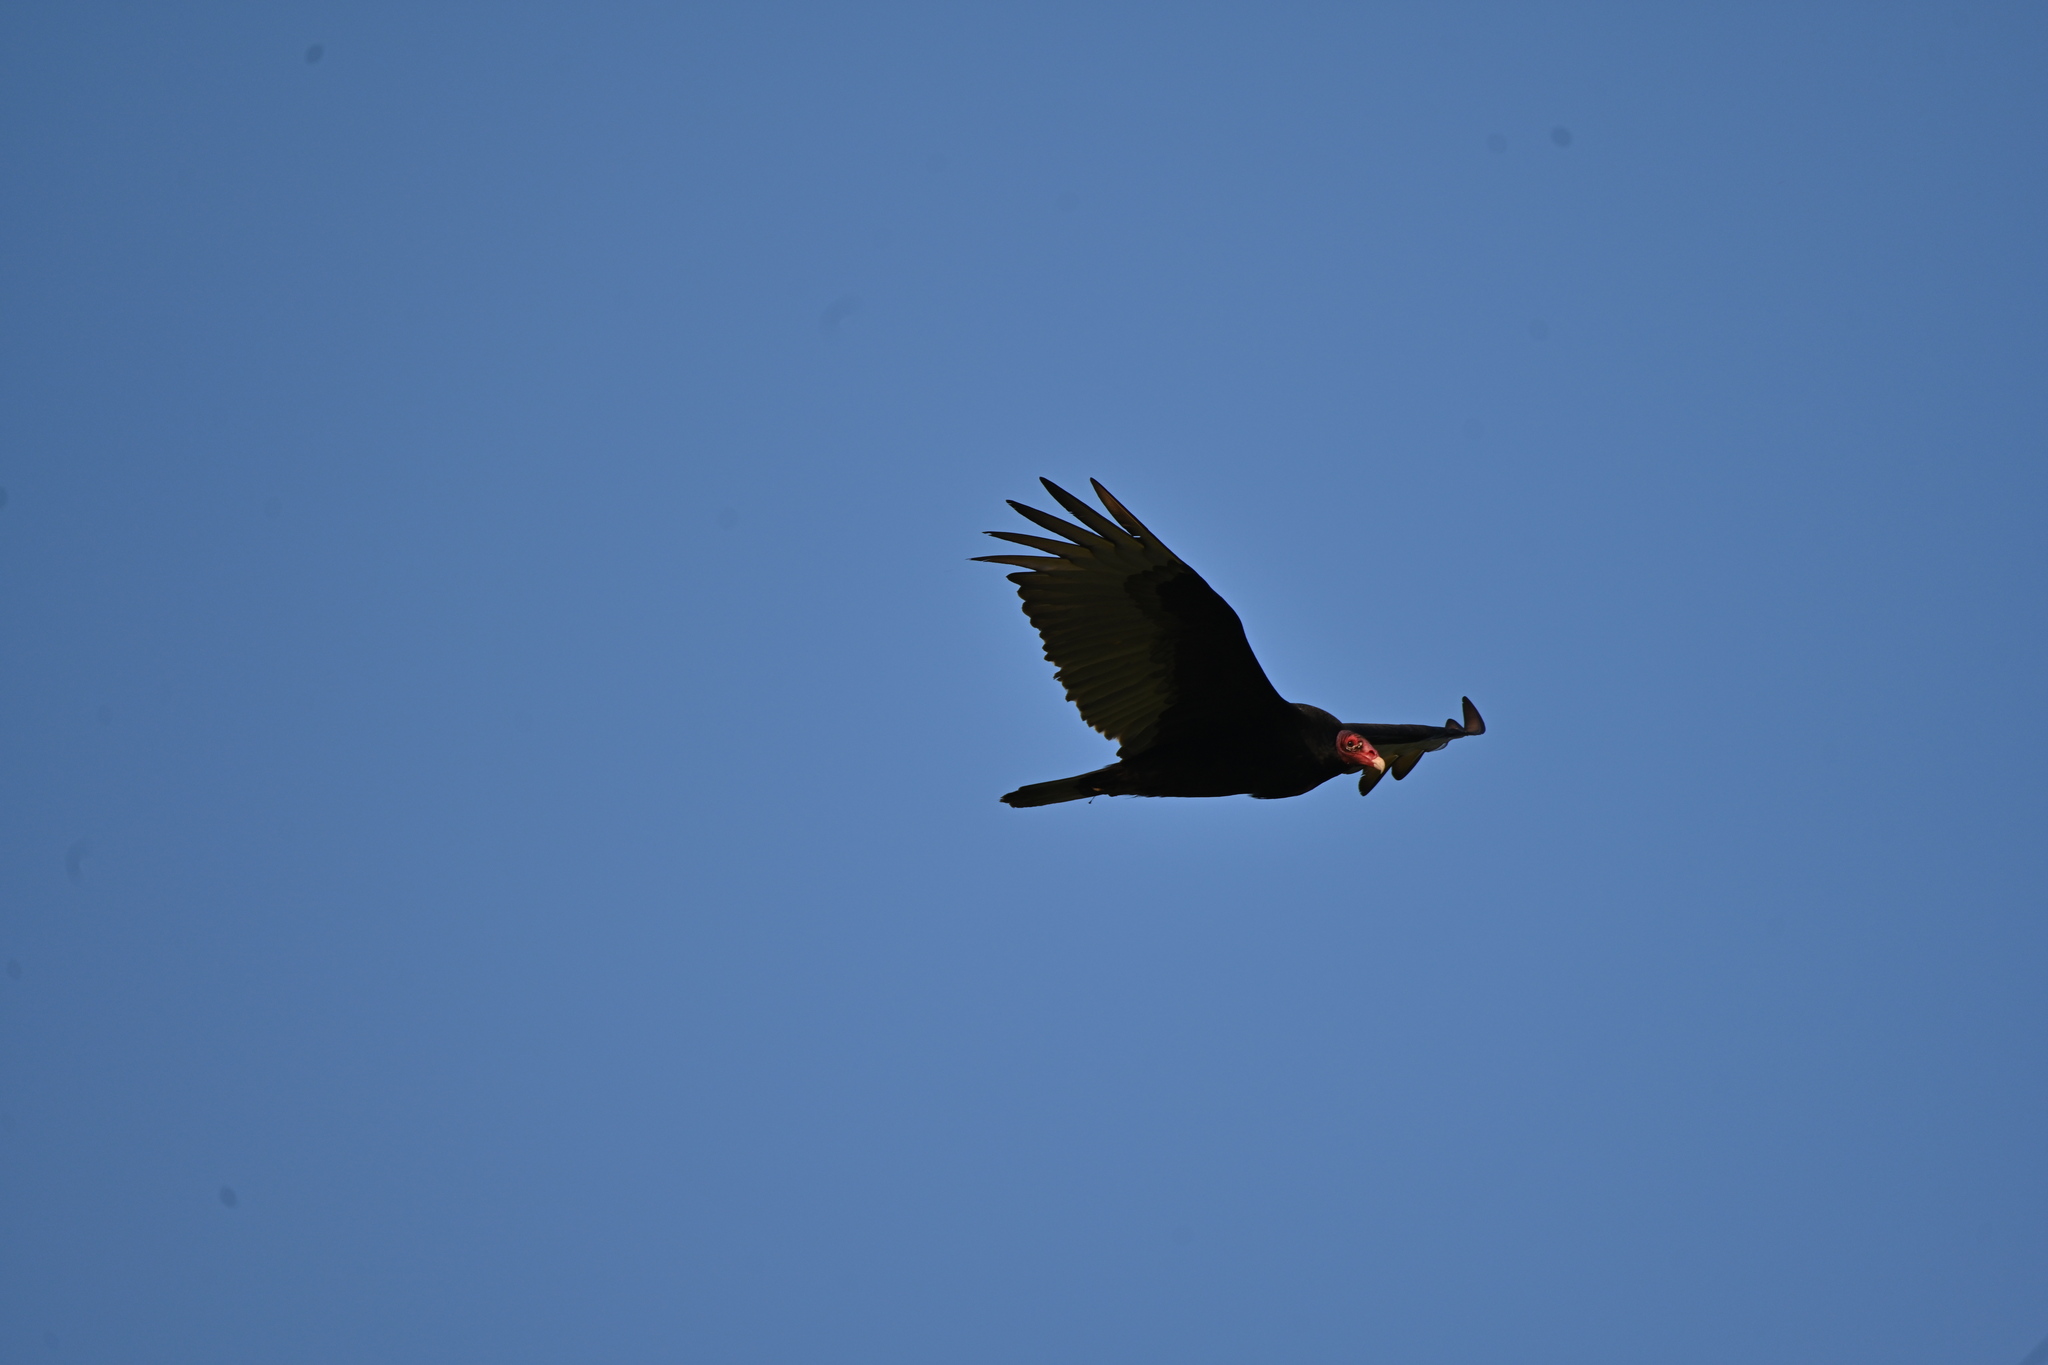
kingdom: Animalia
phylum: Chordata
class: Aves
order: Accipitriformes
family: Cathartidae
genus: Cathartes
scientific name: Cathartes aura
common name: Turkey vulture
